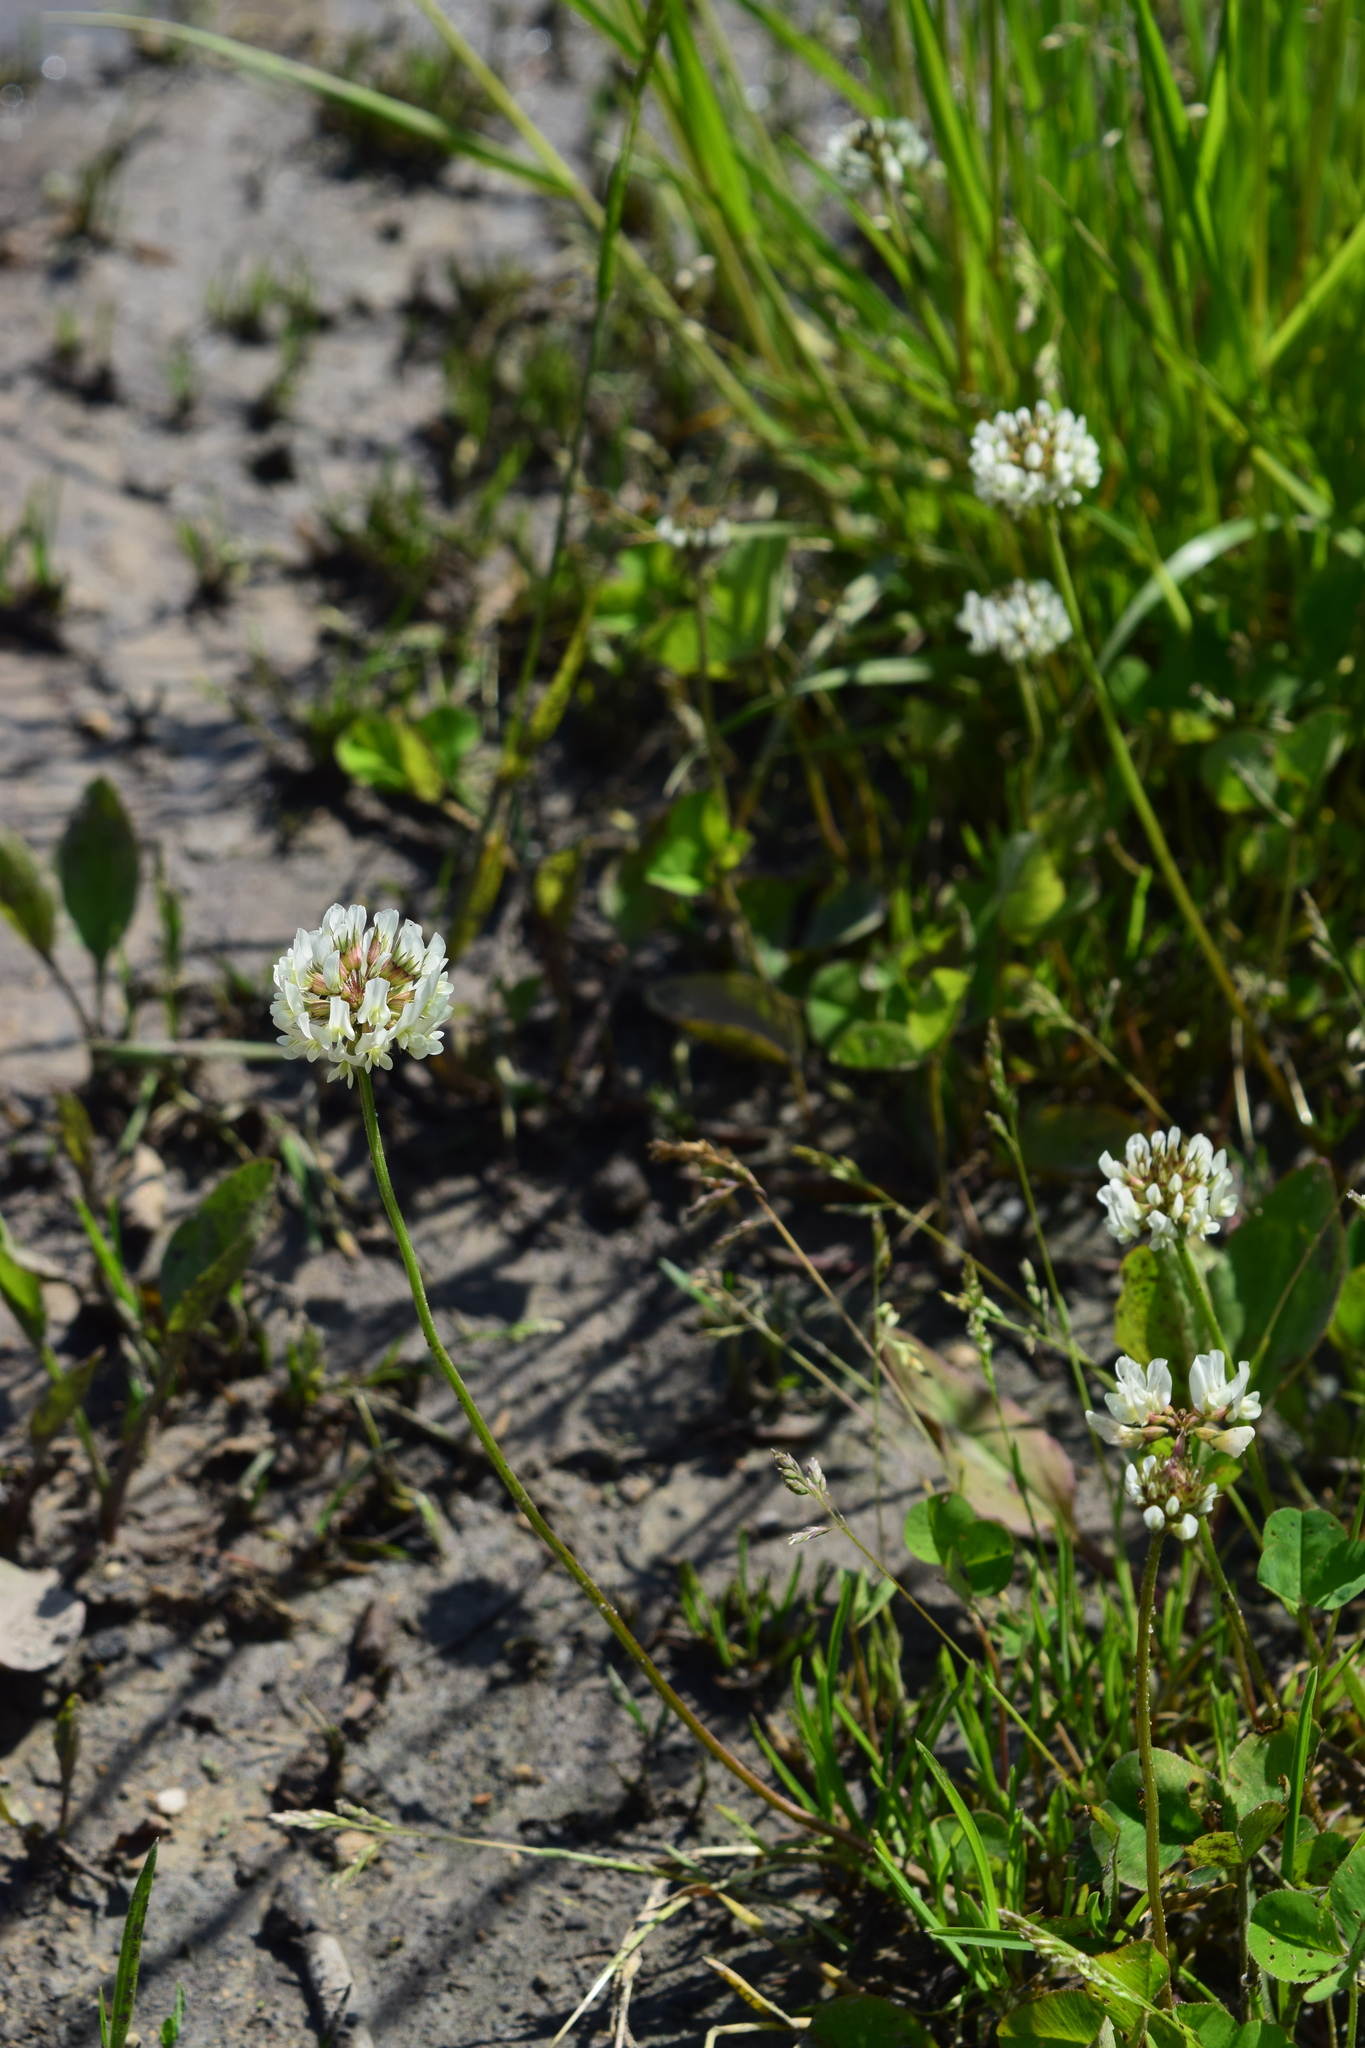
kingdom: Plantae
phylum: Tracheophyta
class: Magnoliopsida
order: Fabales
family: Fabaceae
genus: Trifolium
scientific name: Trifolium repens
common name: White clover
